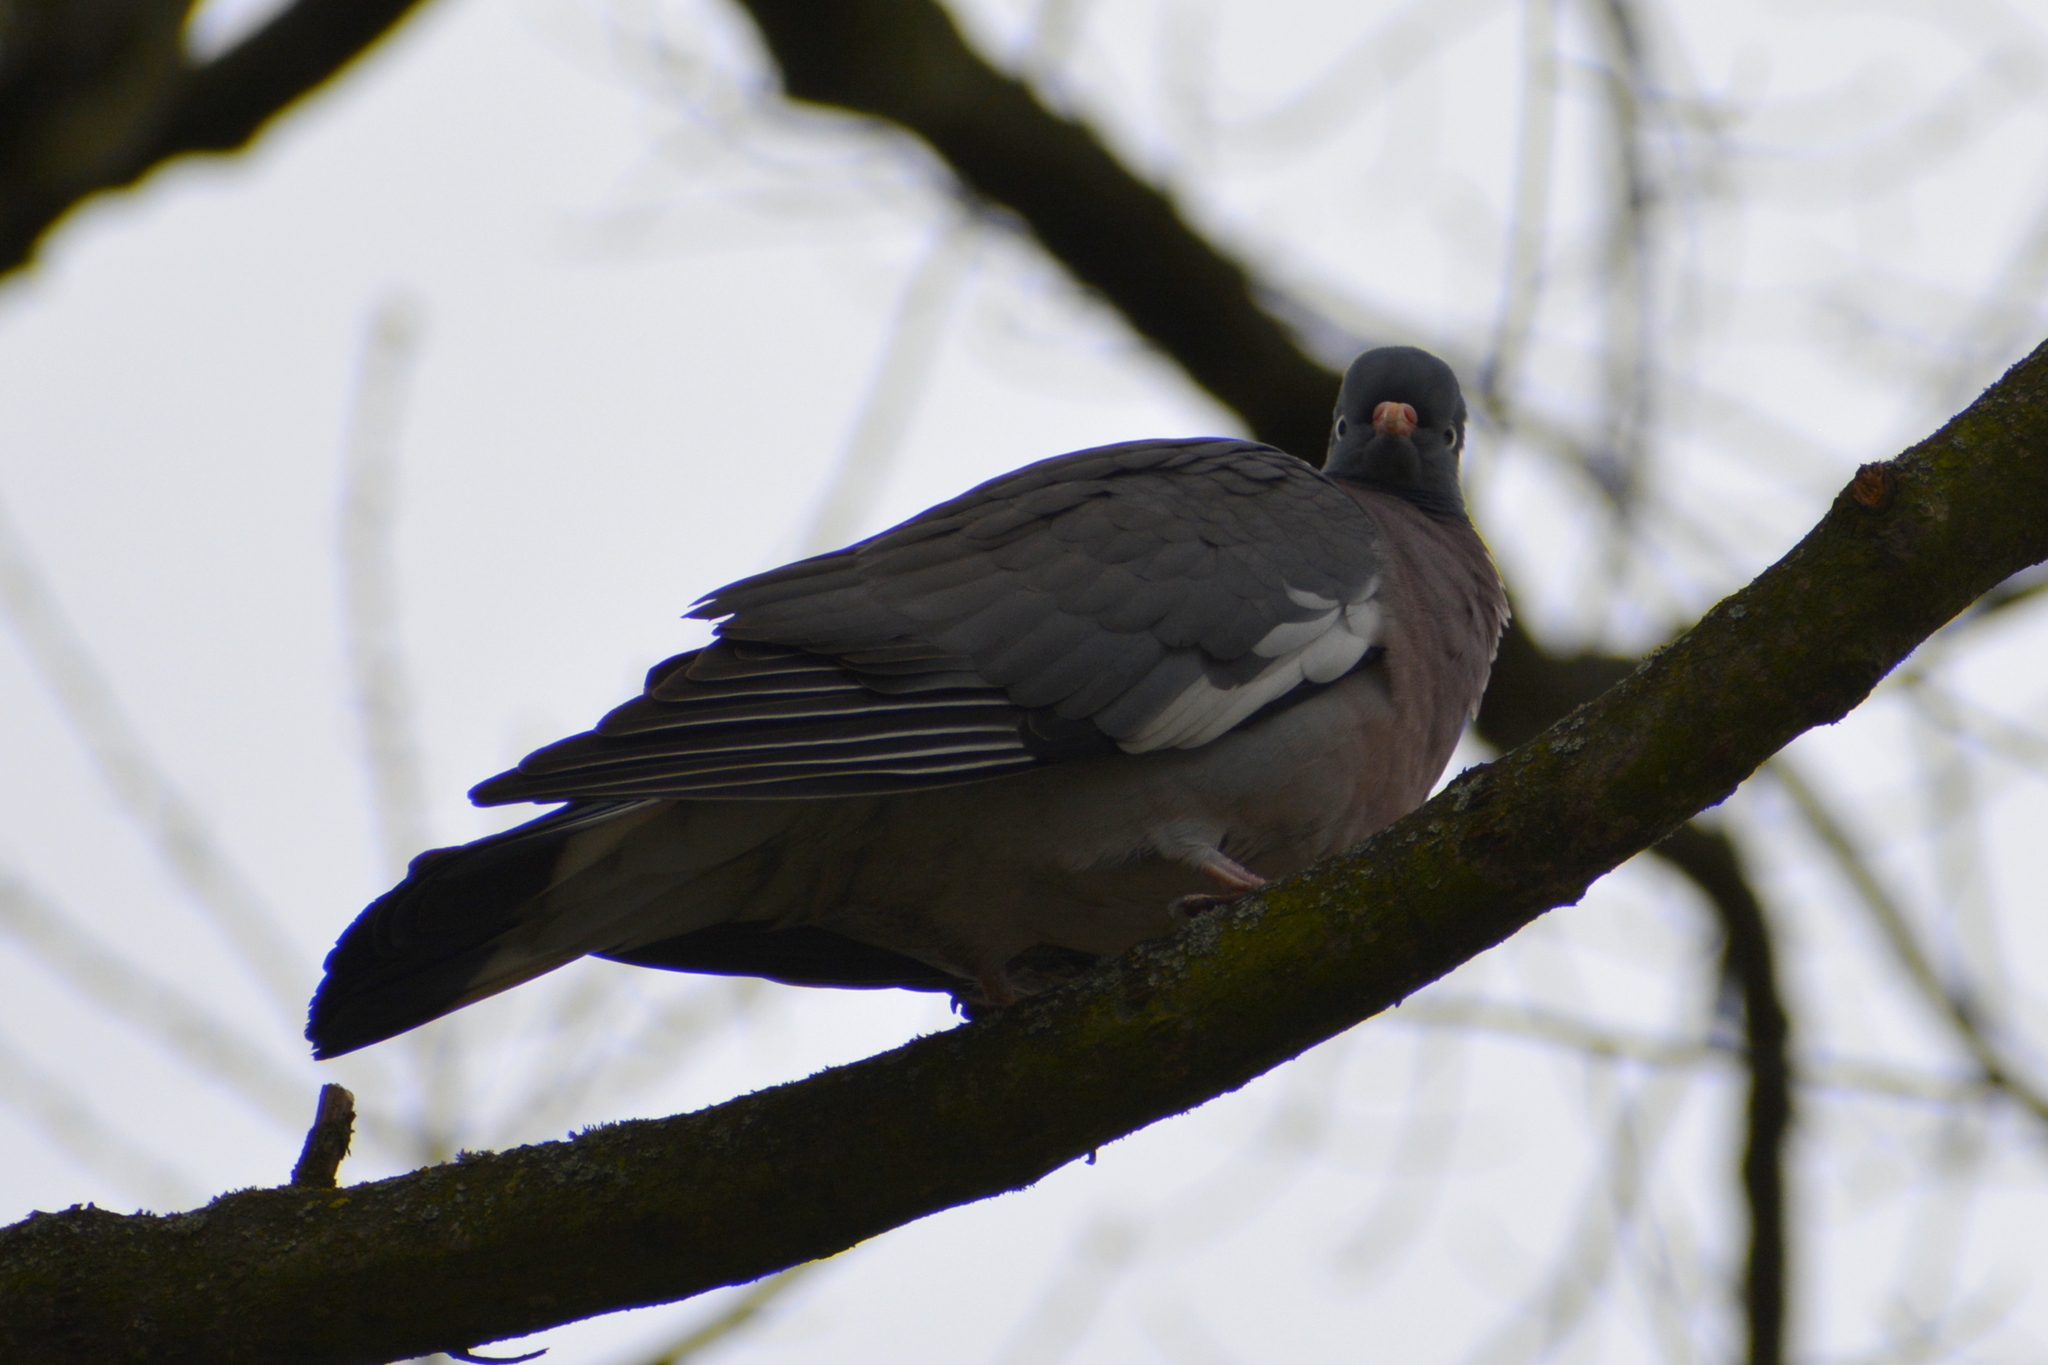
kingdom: Animalia
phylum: Chordata
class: Aves
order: Columbiformes
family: Columbidae
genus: Columba
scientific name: Columba palumbus
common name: Common wood pigeon
